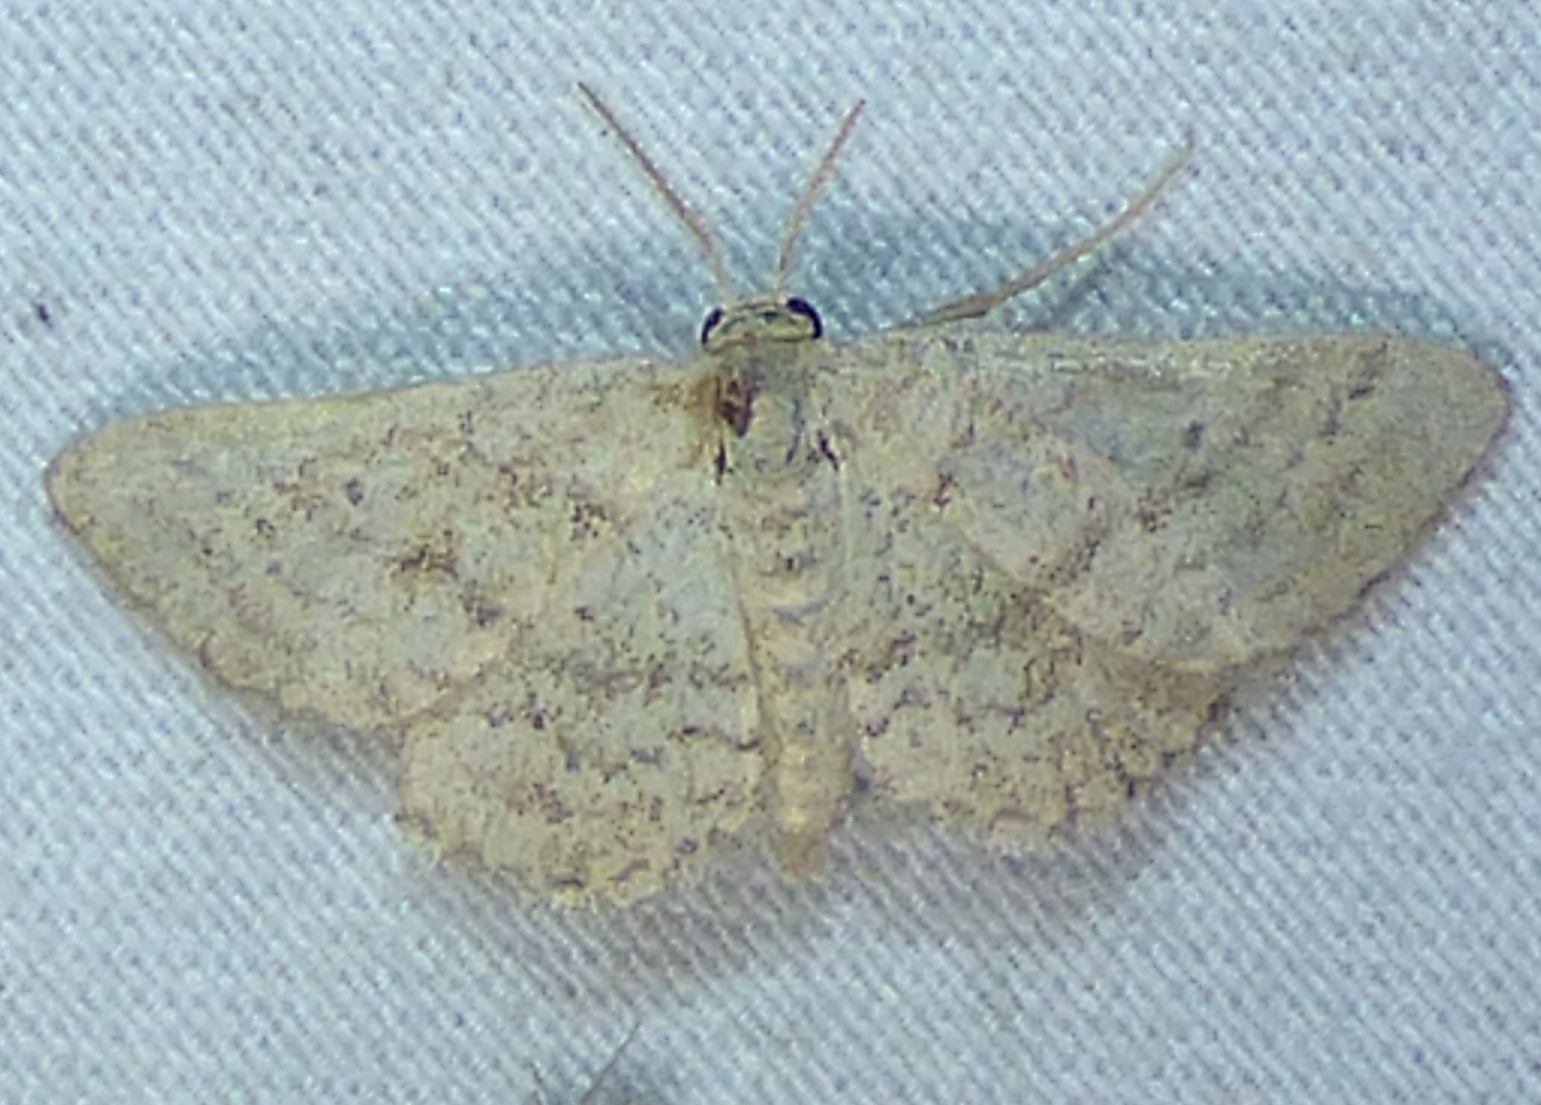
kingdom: Animalia
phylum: Arthropoda
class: Insecta
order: Lepidoptera
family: Geometridae
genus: Lobocleta
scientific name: Lobocleta ossularia
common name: Drab brown wave
